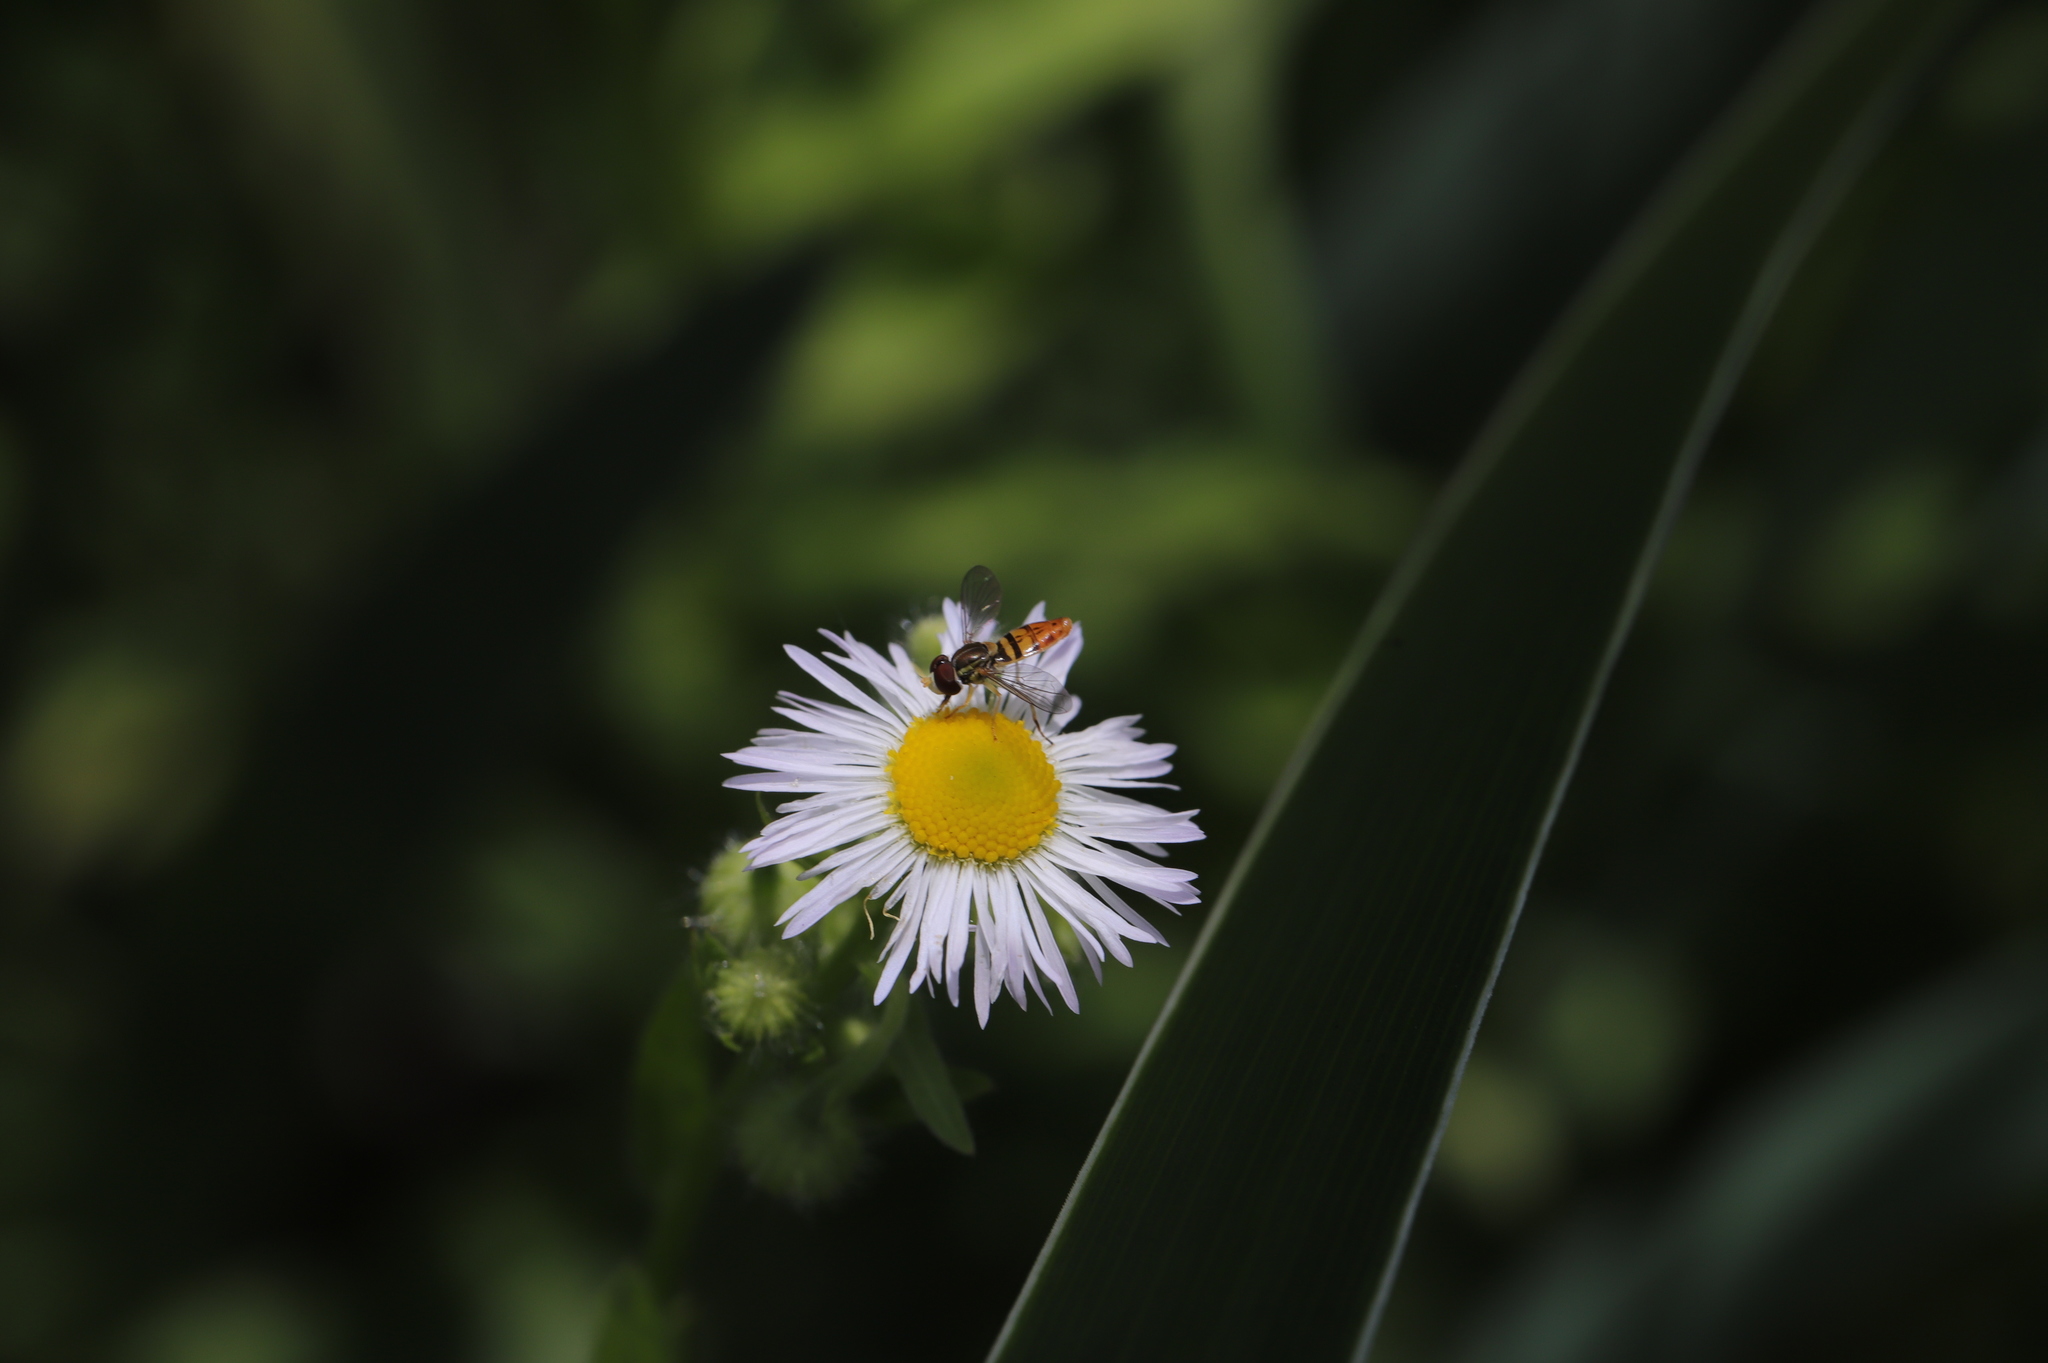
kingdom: Animalia
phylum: Arthropoda
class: Insecta
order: Diptera
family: Syrphidae
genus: Toxomerus
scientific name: Toxomerus marginatus
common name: Syrphid fly
